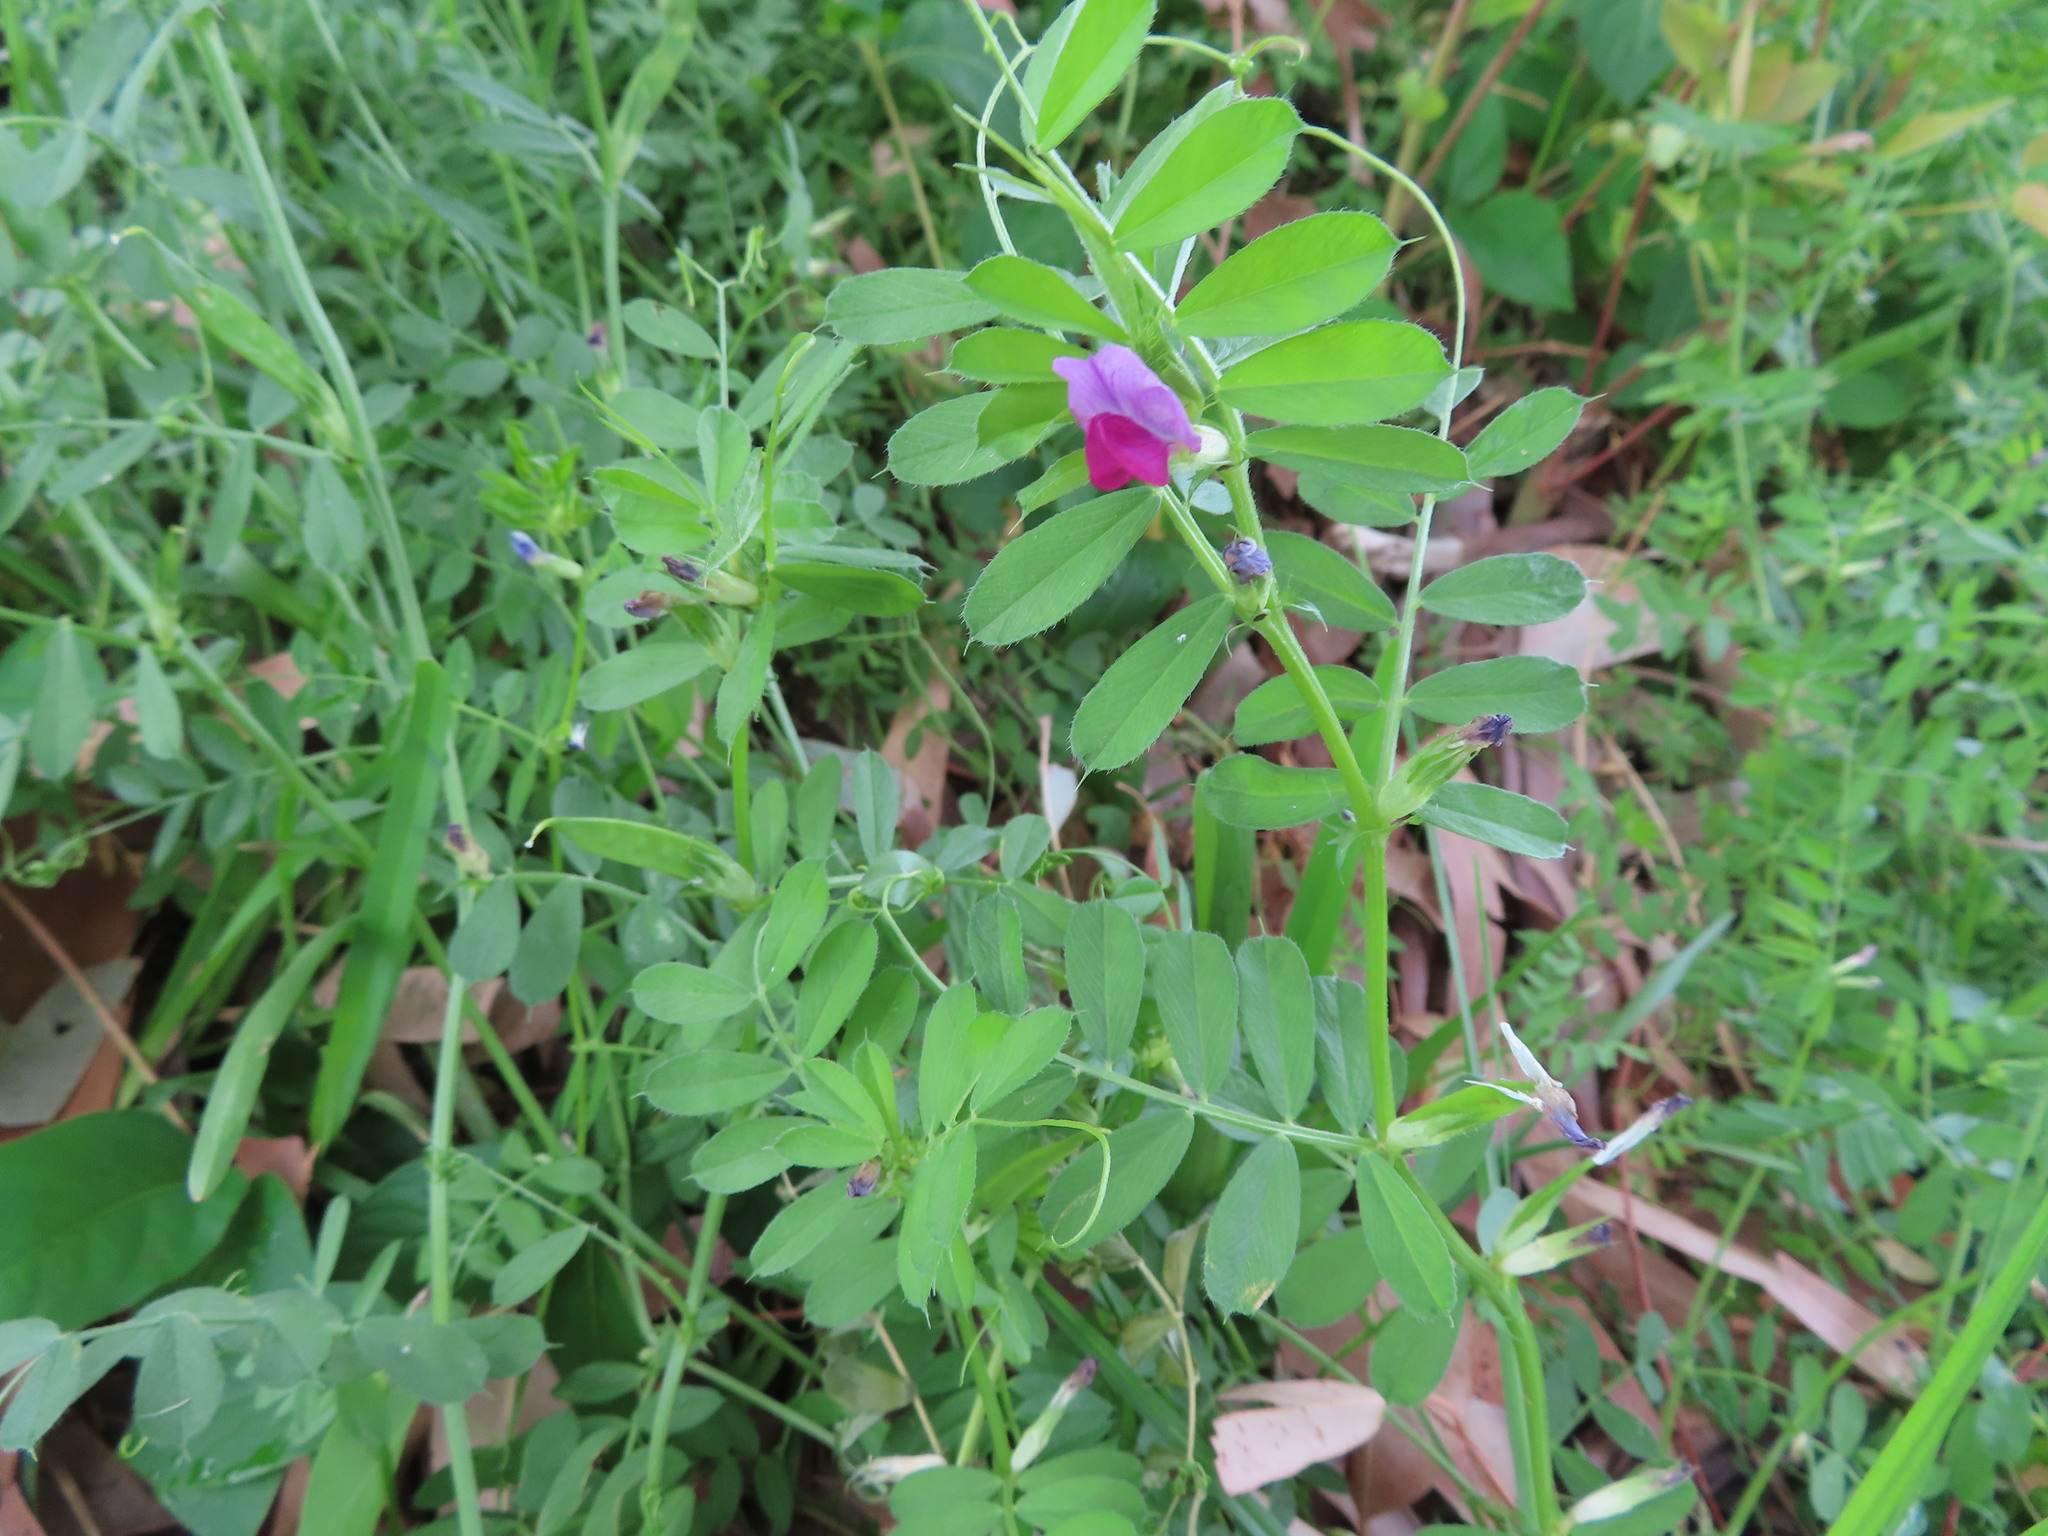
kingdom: Plantae
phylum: Tracheophyta
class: Magnoliopsida
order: Fabales
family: Fabaceae
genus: Vicia
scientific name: Vicia sativa
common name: Garden vetch
